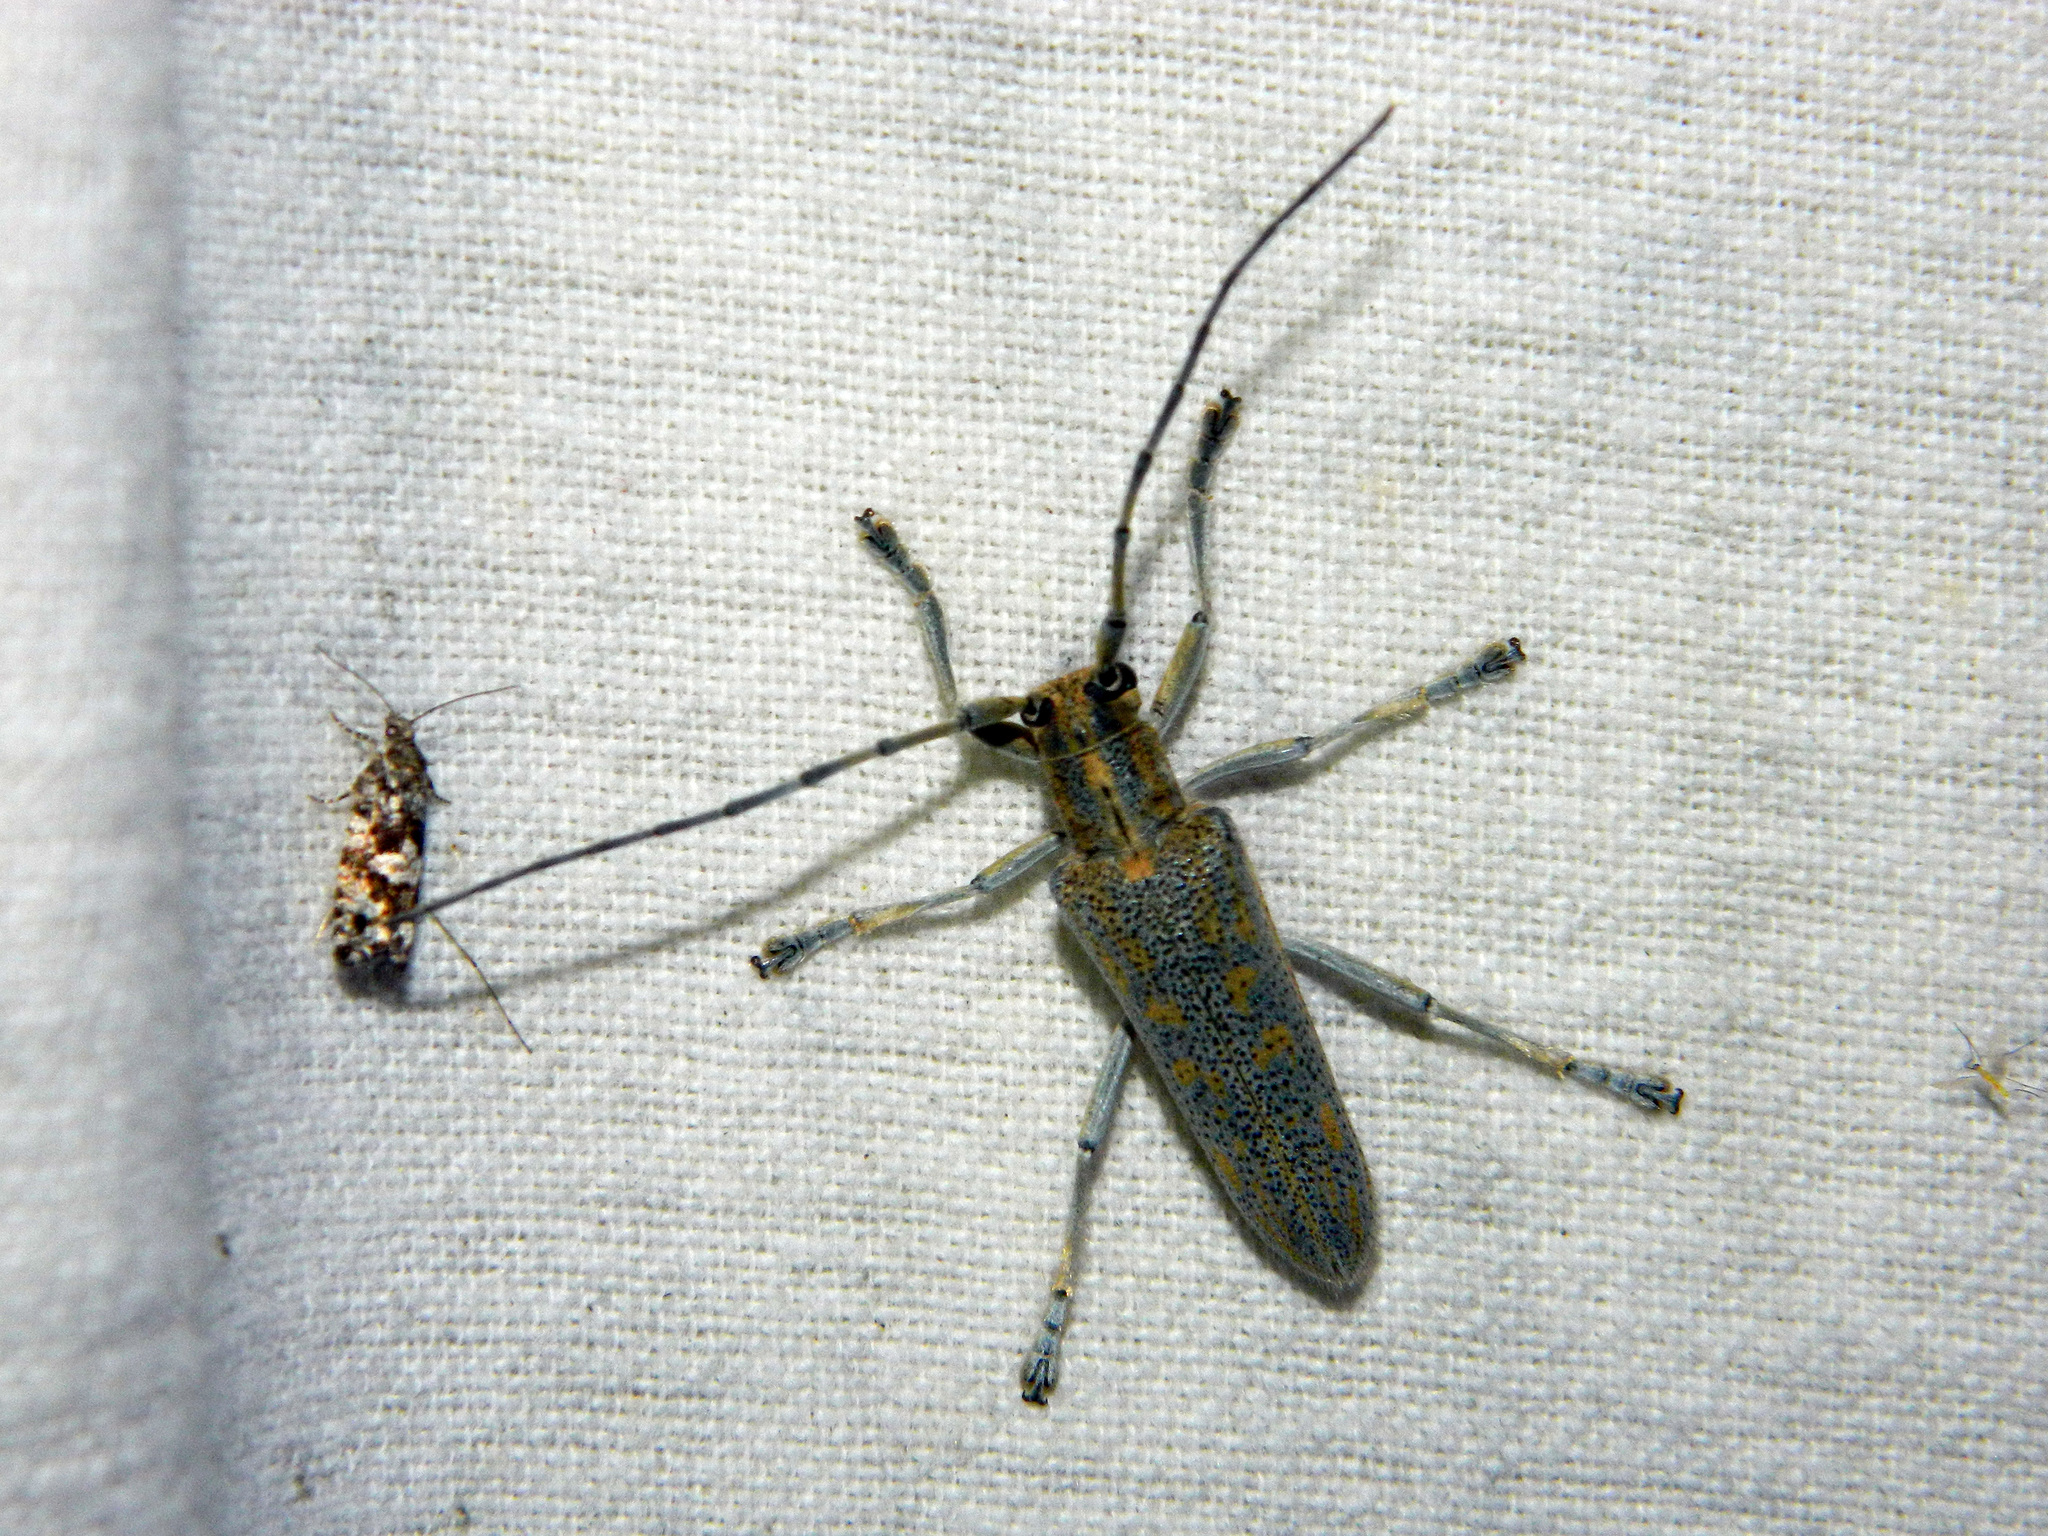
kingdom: Animalia
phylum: Arthropoda
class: Insecta
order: Coleoptera
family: Cerambycidae
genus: Saperda
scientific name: Saperda calcarata
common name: Poplar borer
